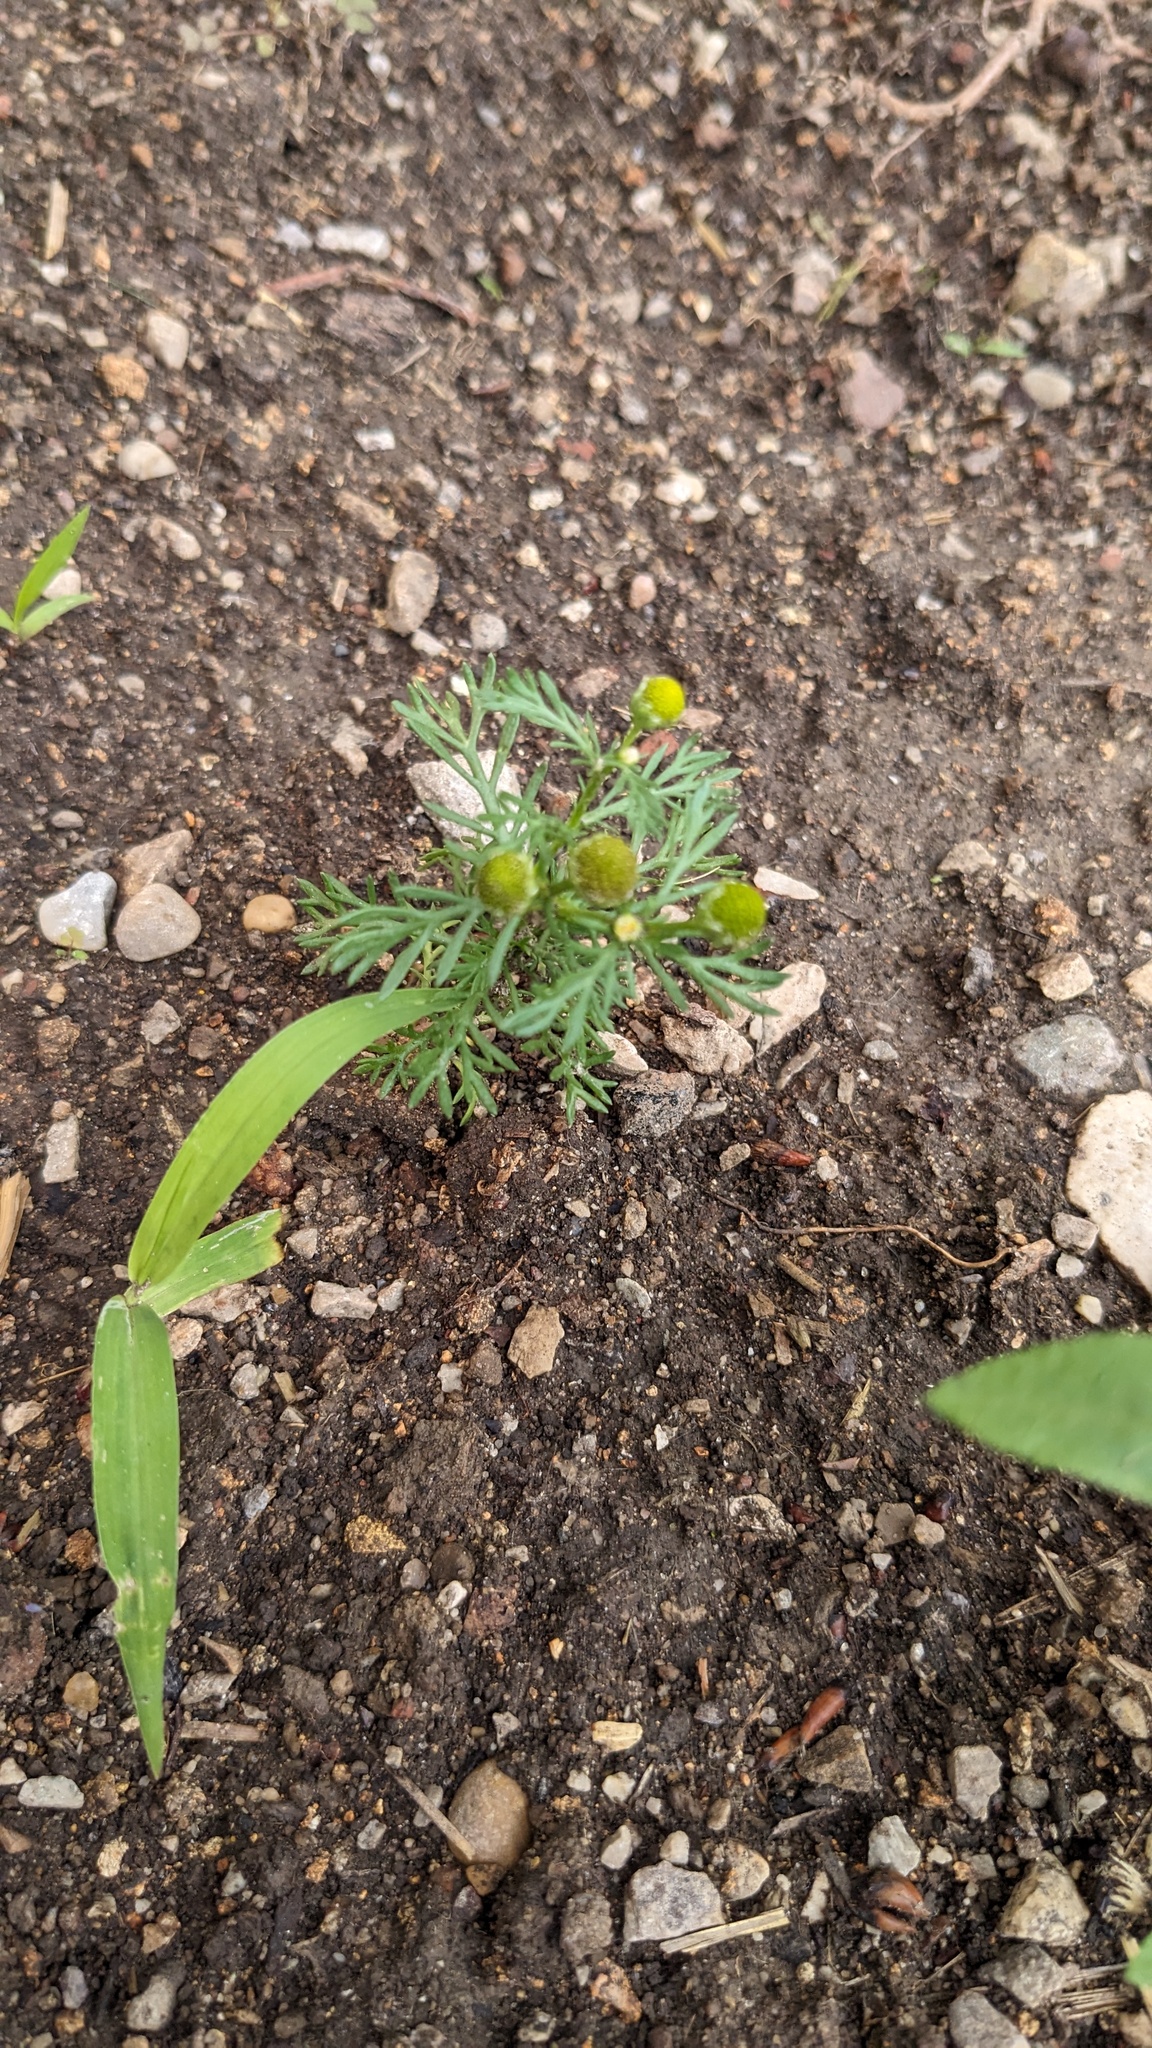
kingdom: Plantae
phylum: Tracheophyta
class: Magnoliopsida
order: Asterales
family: Asteraceae
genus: Matricaria
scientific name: Matricaria discoidea
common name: Disc mayweed
